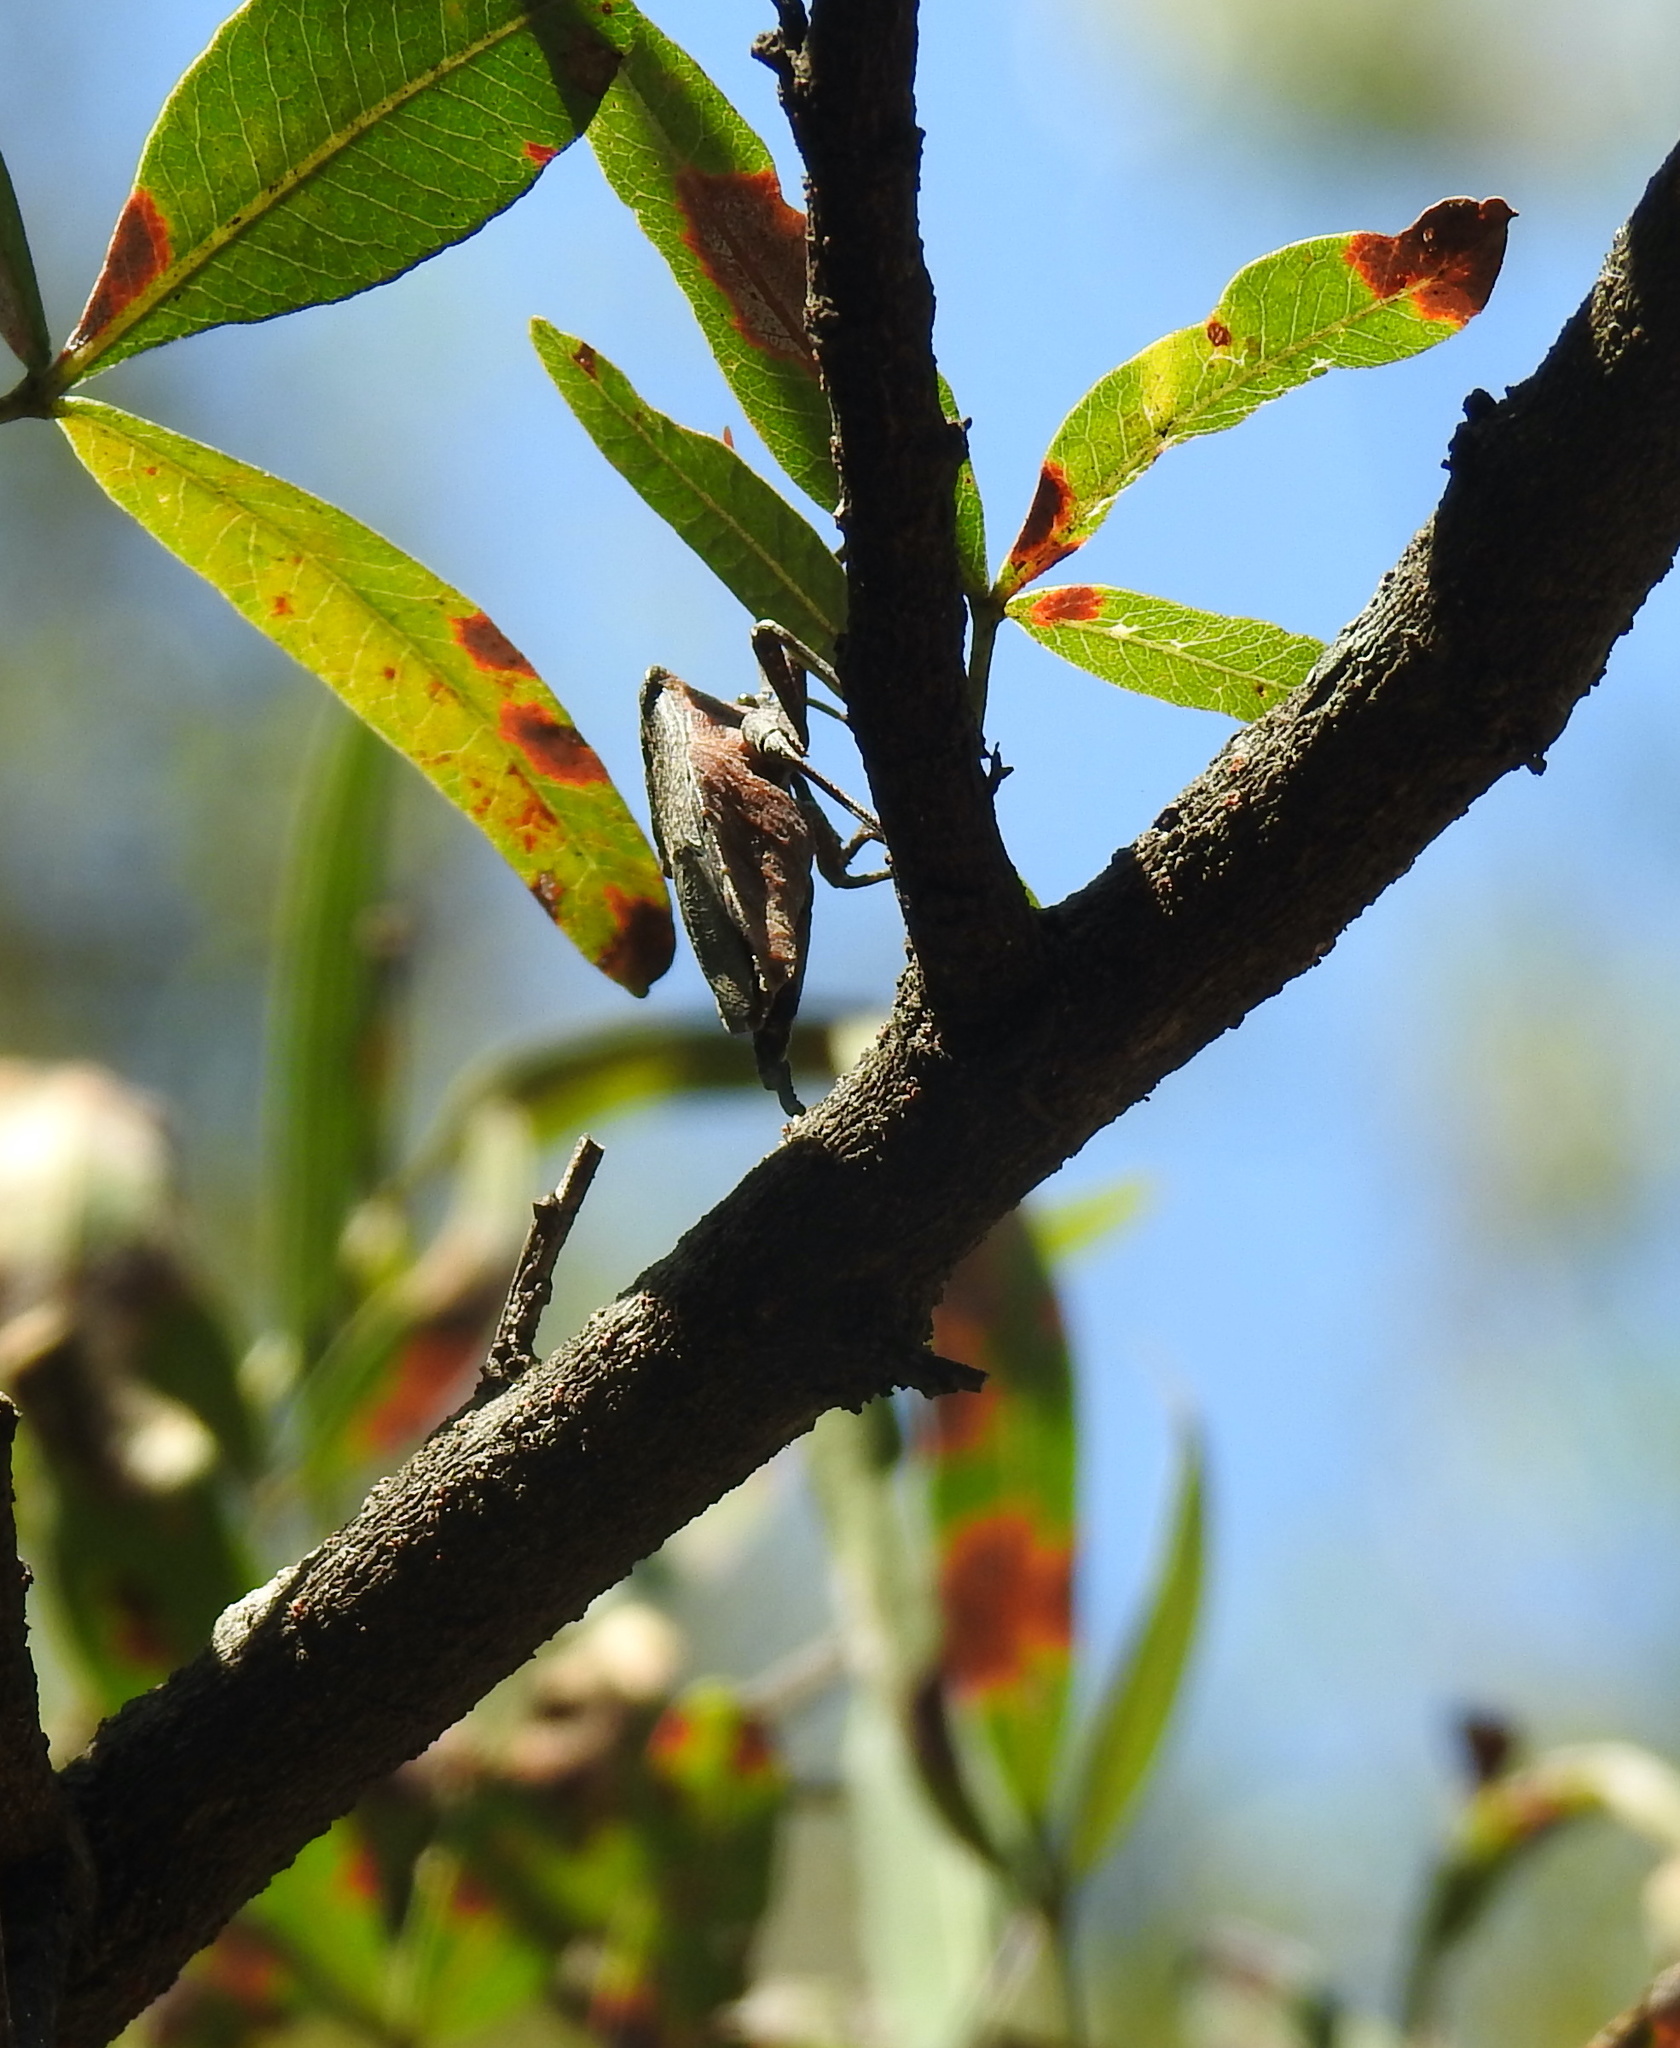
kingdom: Animalia
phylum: Arthropoda
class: Insecta
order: Hemiptera
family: Coreidae
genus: Rhyticoris
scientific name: Rhyticoris terminalis
